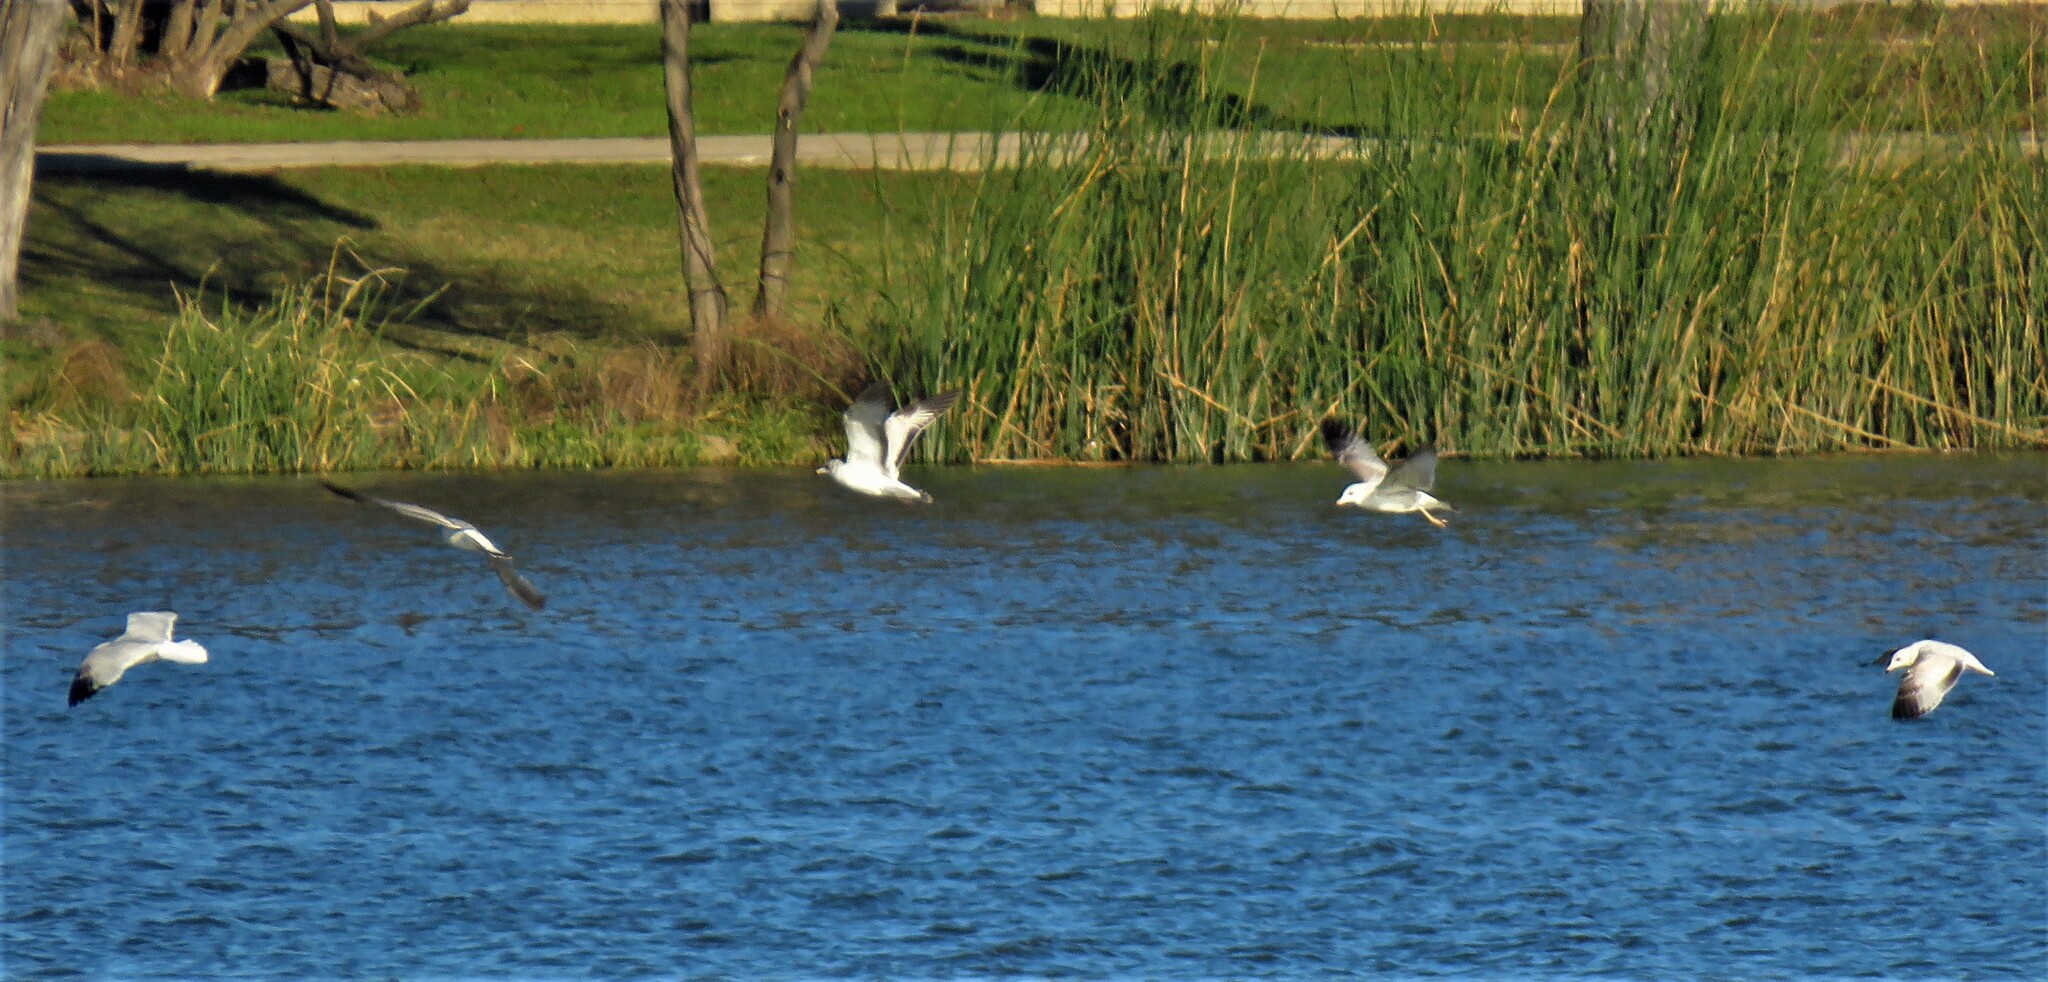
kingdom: Animalia
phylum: Chordata
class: Aves
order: Charadriiformes
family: Laridae
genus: Larus
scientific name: Larus delawarensis
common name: Ring-billed gull
